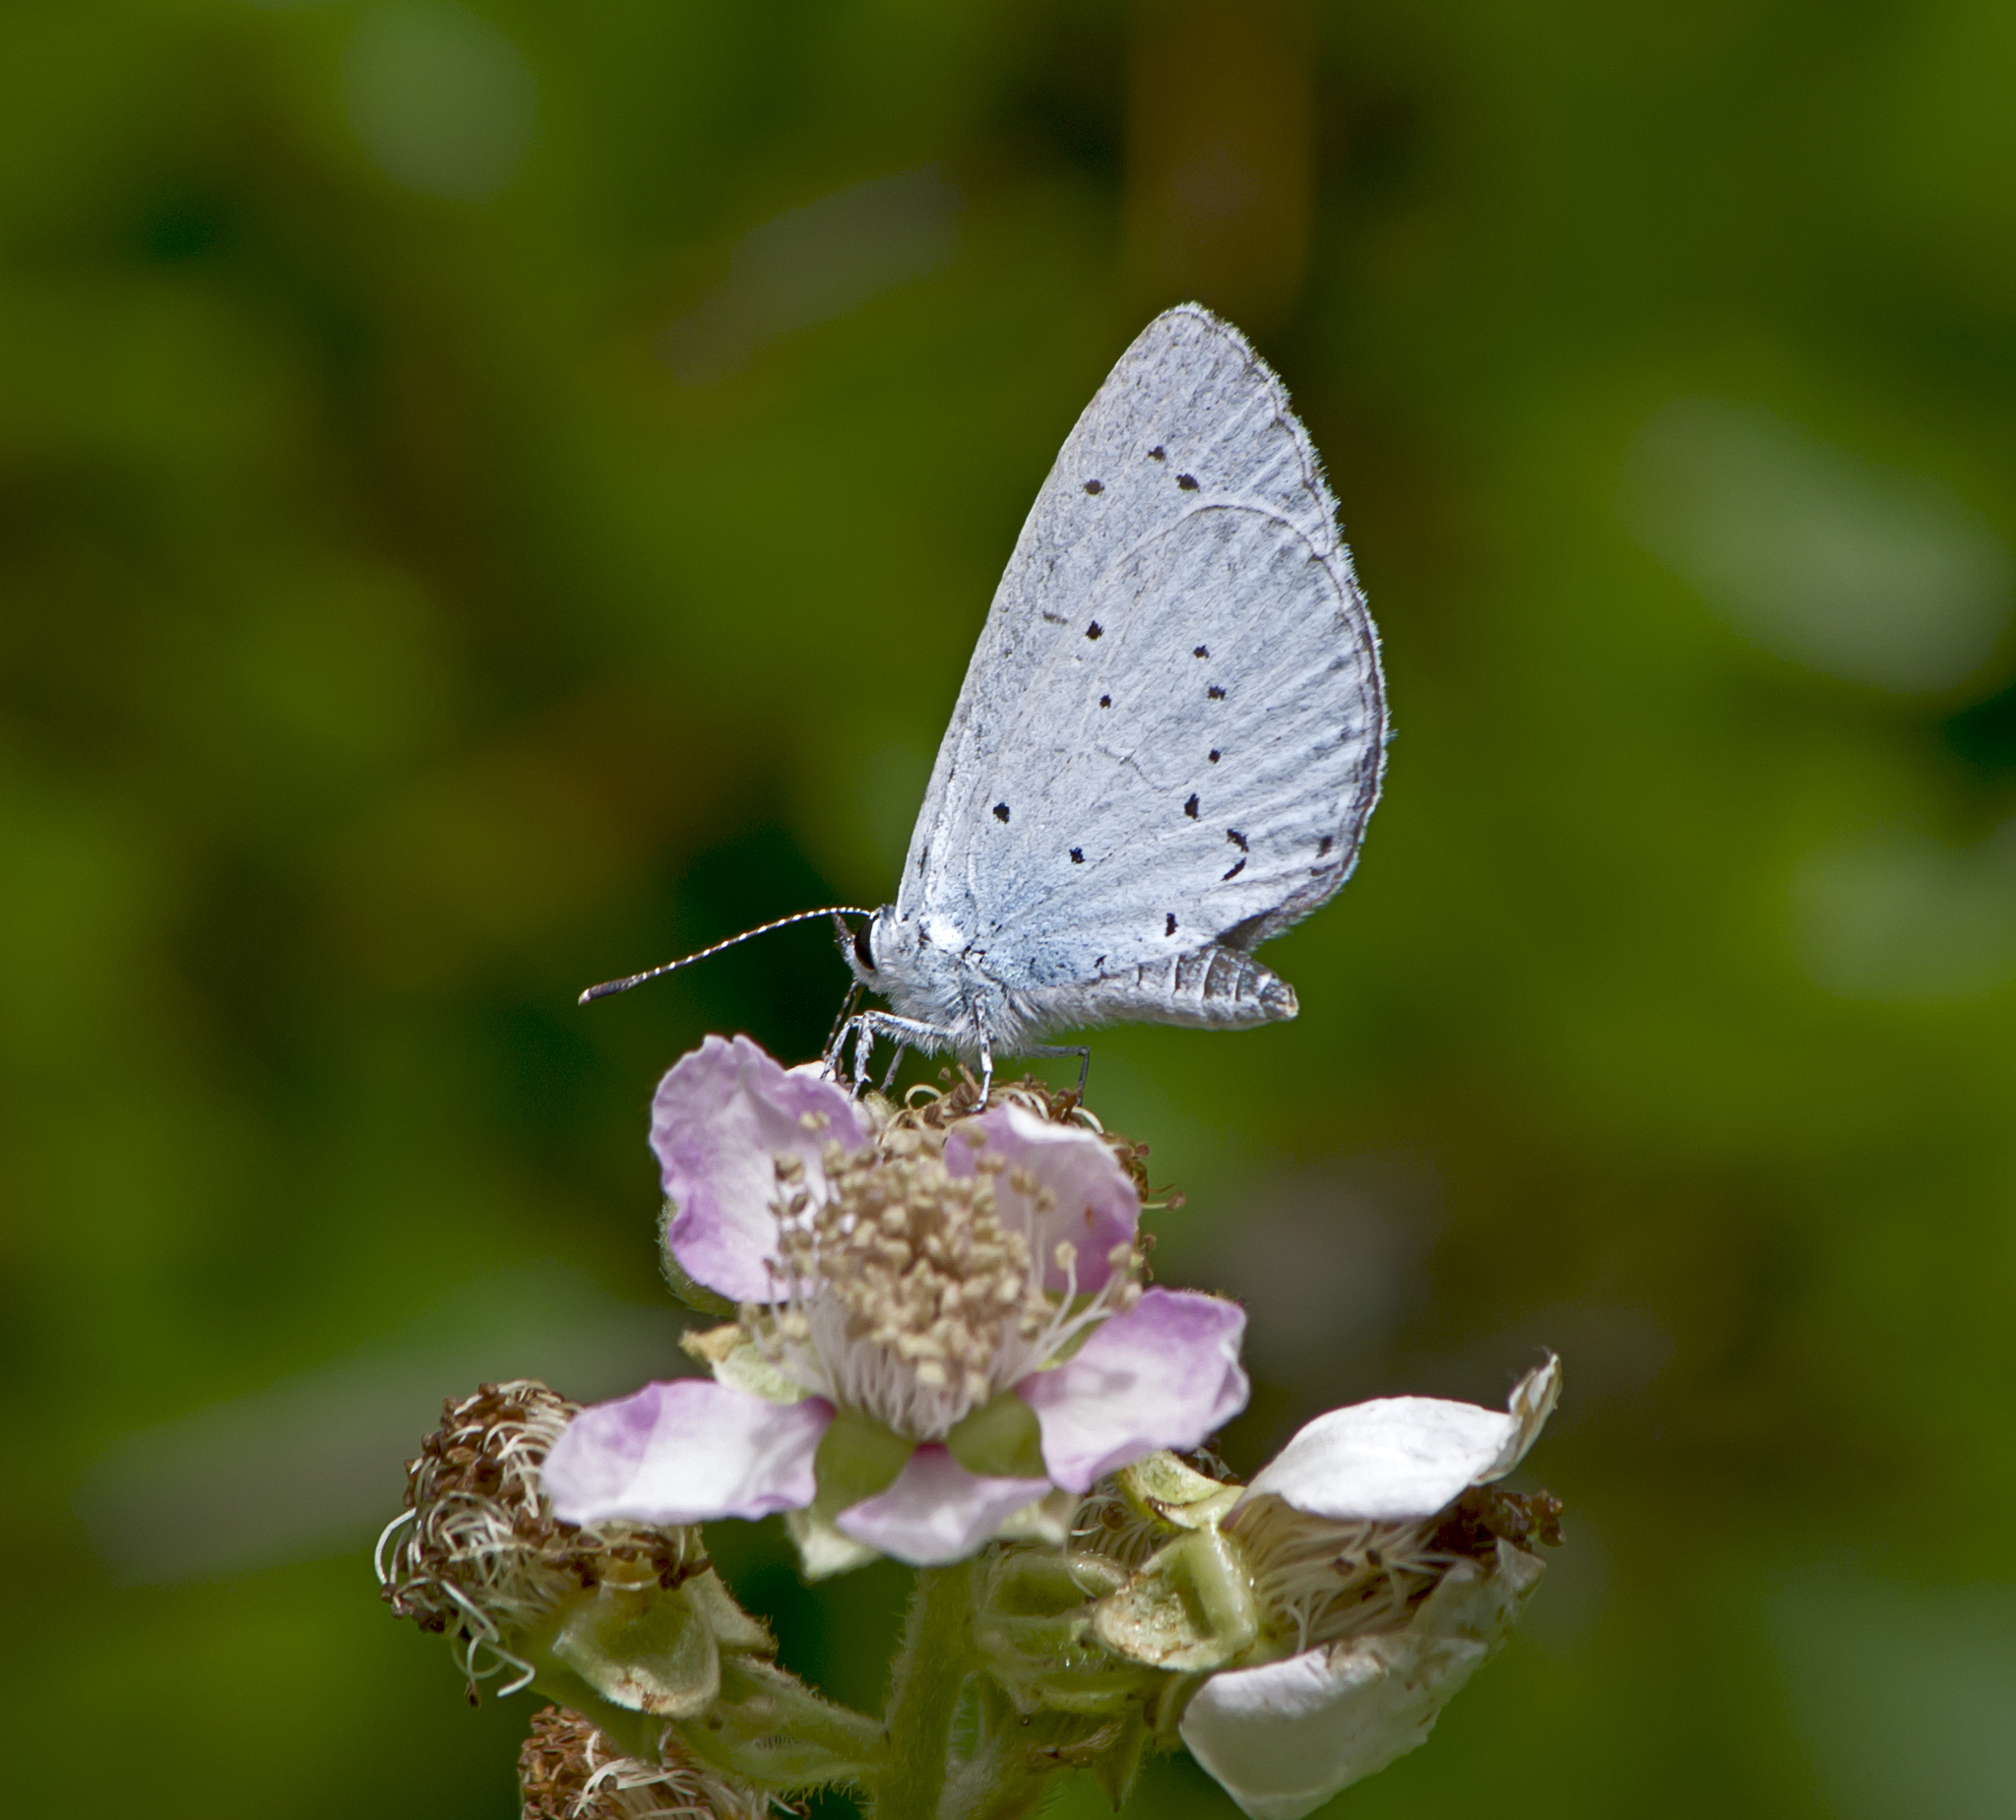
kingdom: Animalia
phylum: Arthropoda
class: Insecta
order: Lepidoptera
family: Lycaenidae
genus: Celastrina
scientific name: Celastrina argiolus
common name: Holly blue
